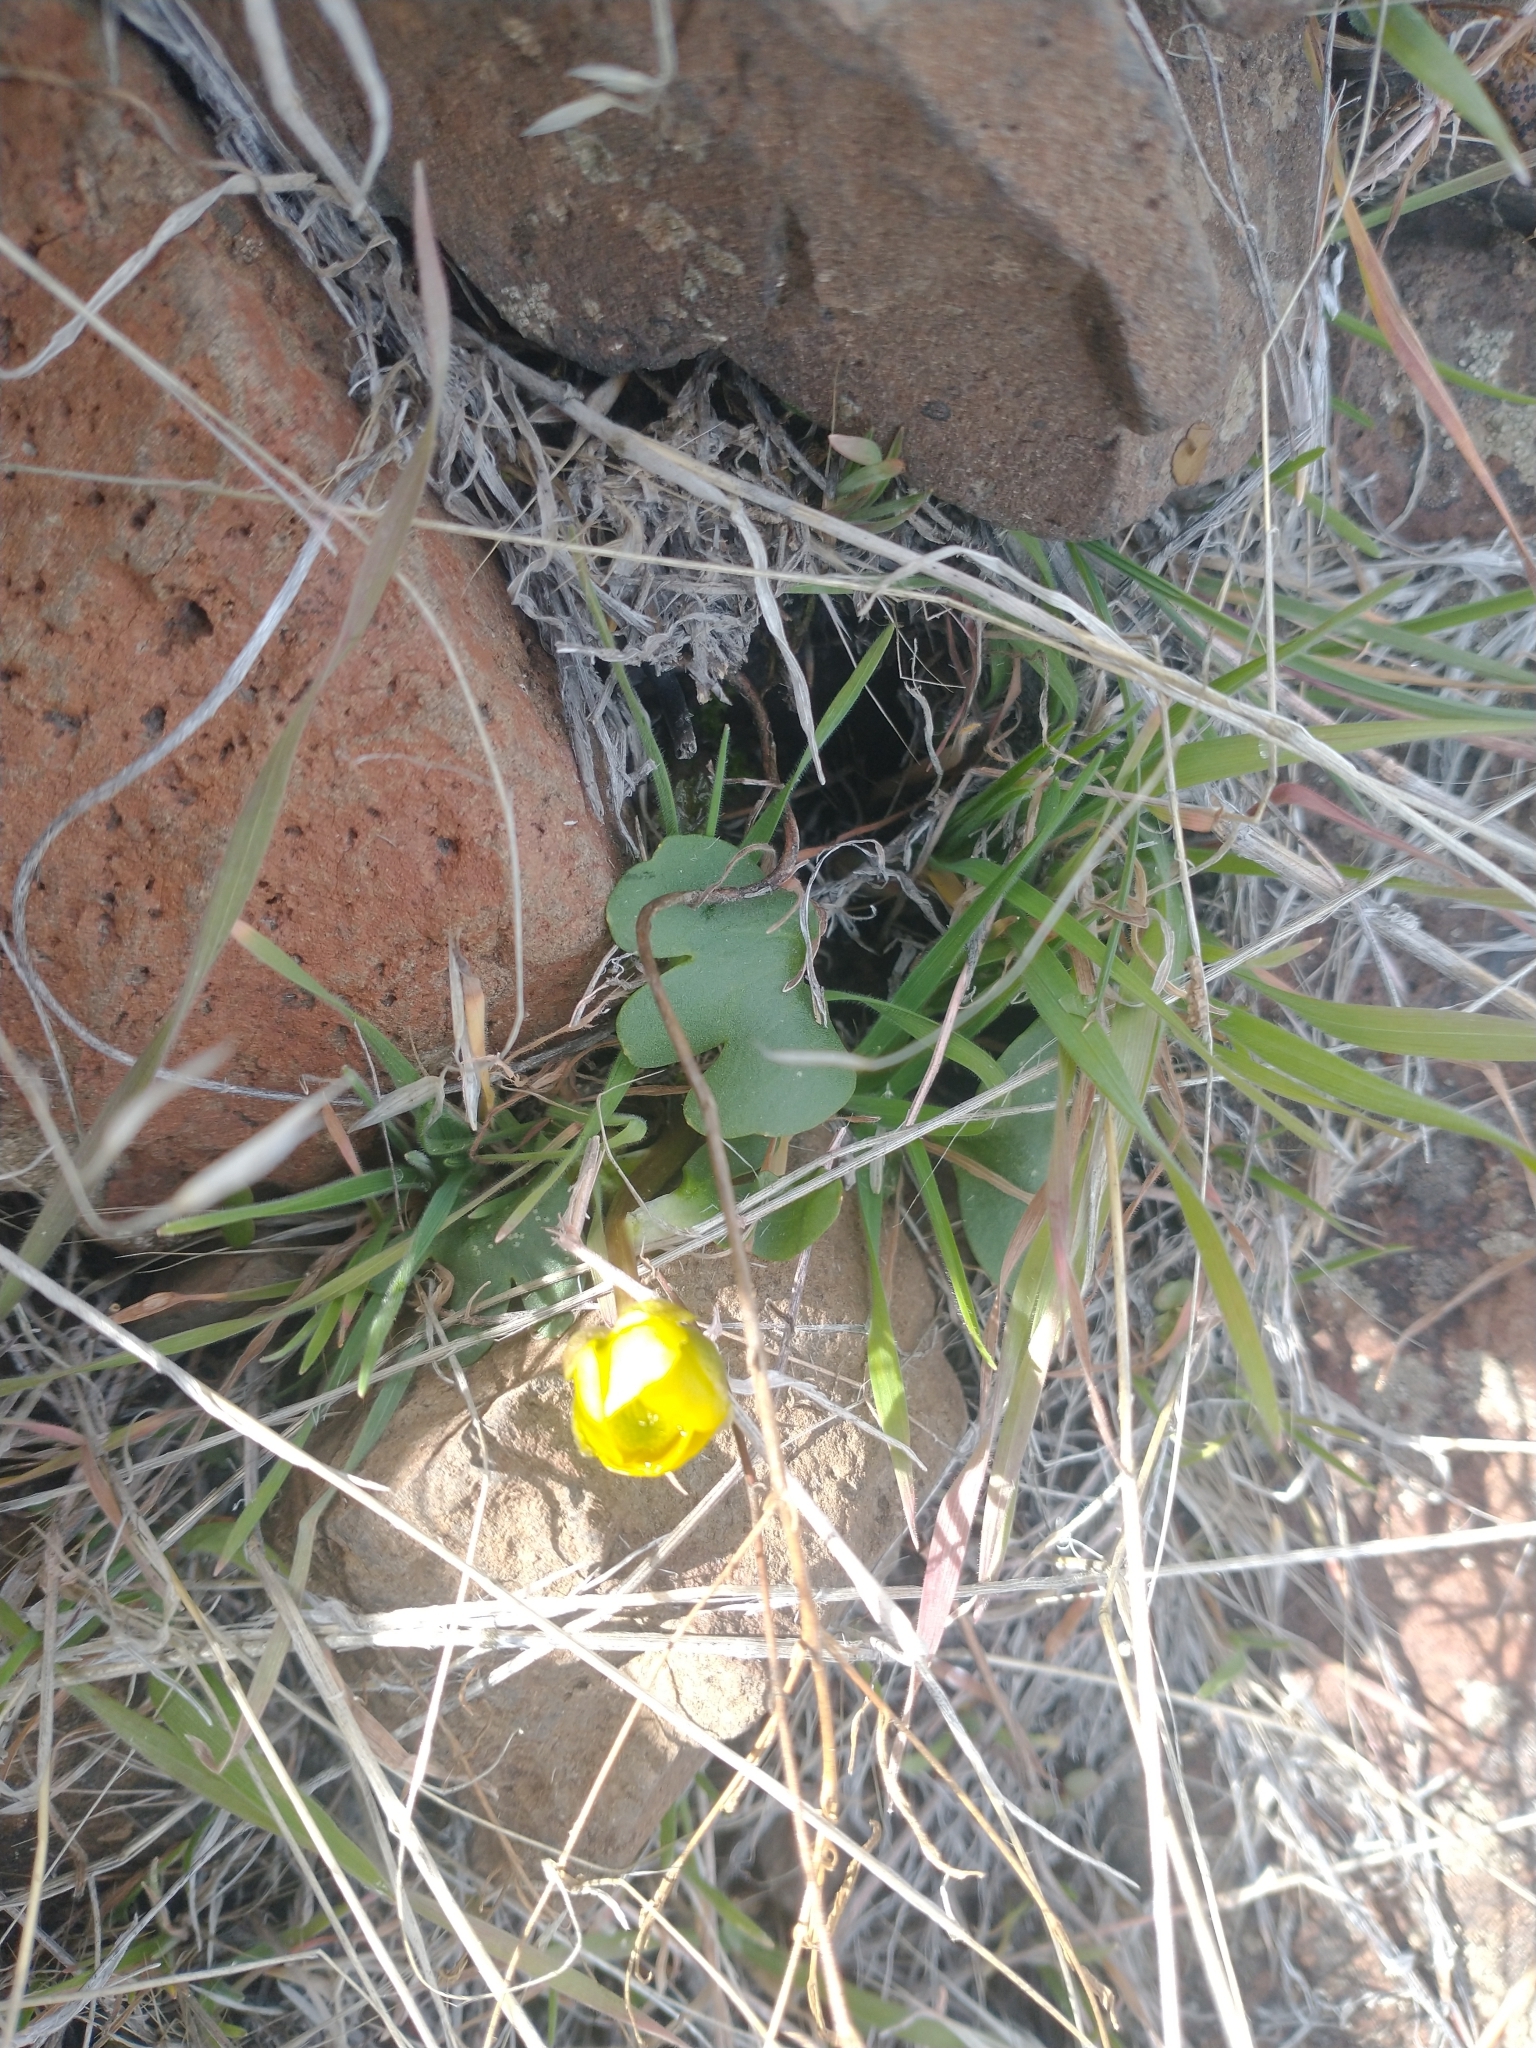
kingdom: Plantae
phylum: Tracheophyta
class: Magnoliopsida
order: Ranunculales
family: Ranunculaceae
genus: Ranunculus
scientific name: Ranunculus glaberrimus
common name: Sagebrush buttercup
